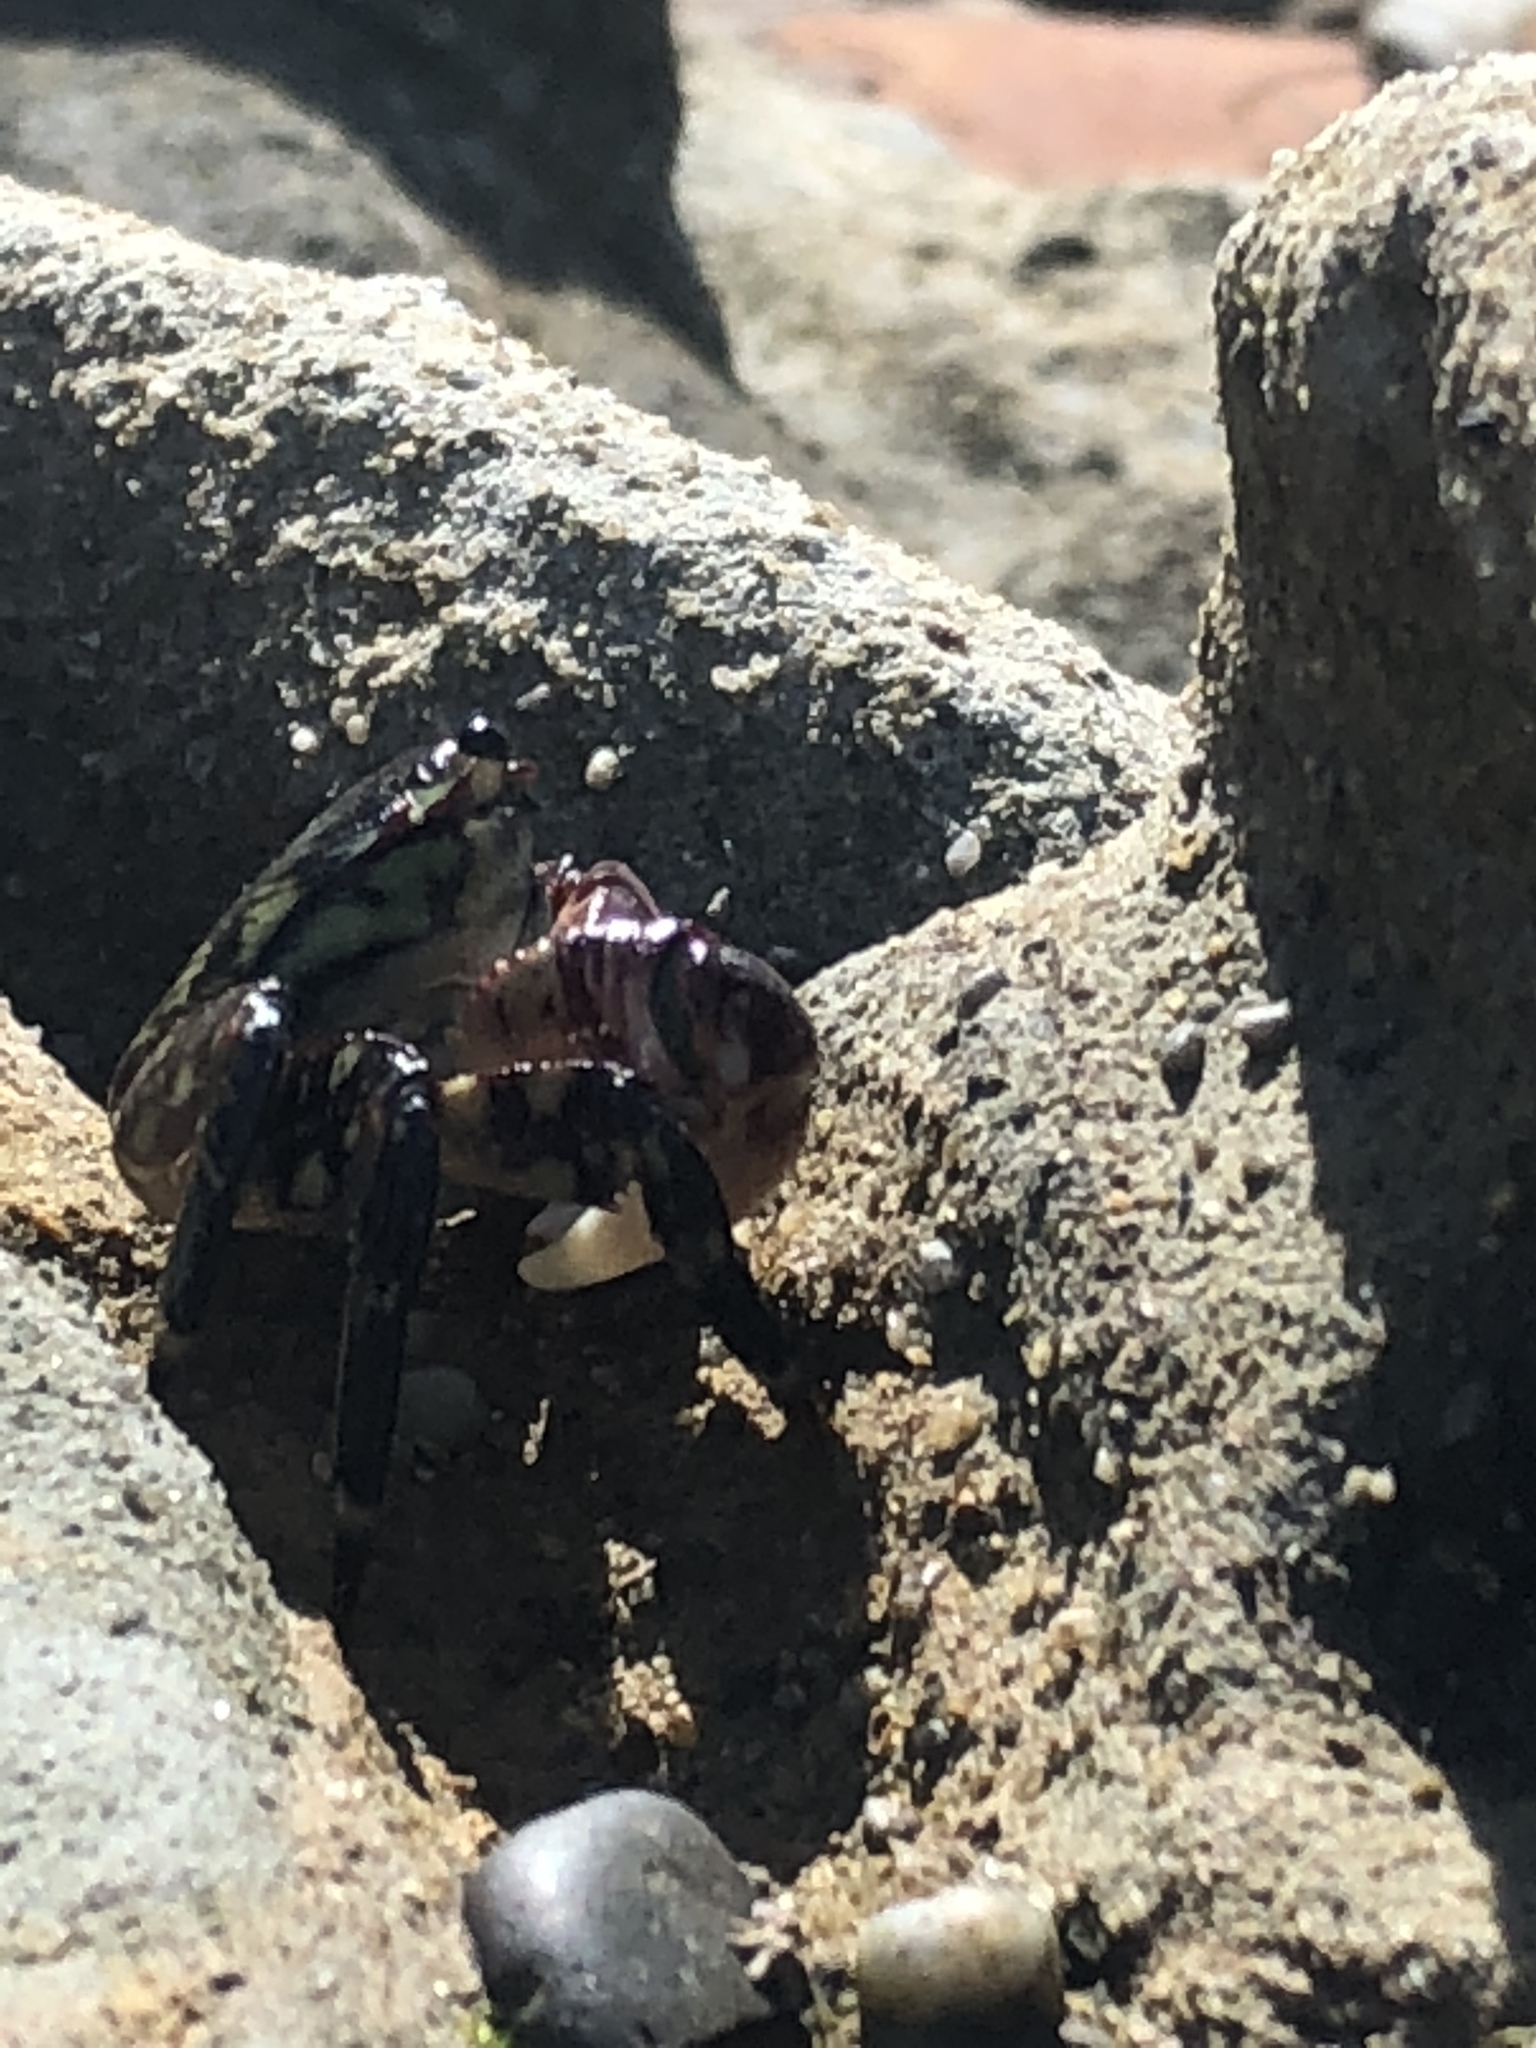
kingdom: Animalia
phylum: Arthropoda
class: Malacostraca
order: Decapoda
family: Grapsidae
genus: Pachygrapsus
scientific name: Pachygrapsus crassipes
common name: Striped shore crab
